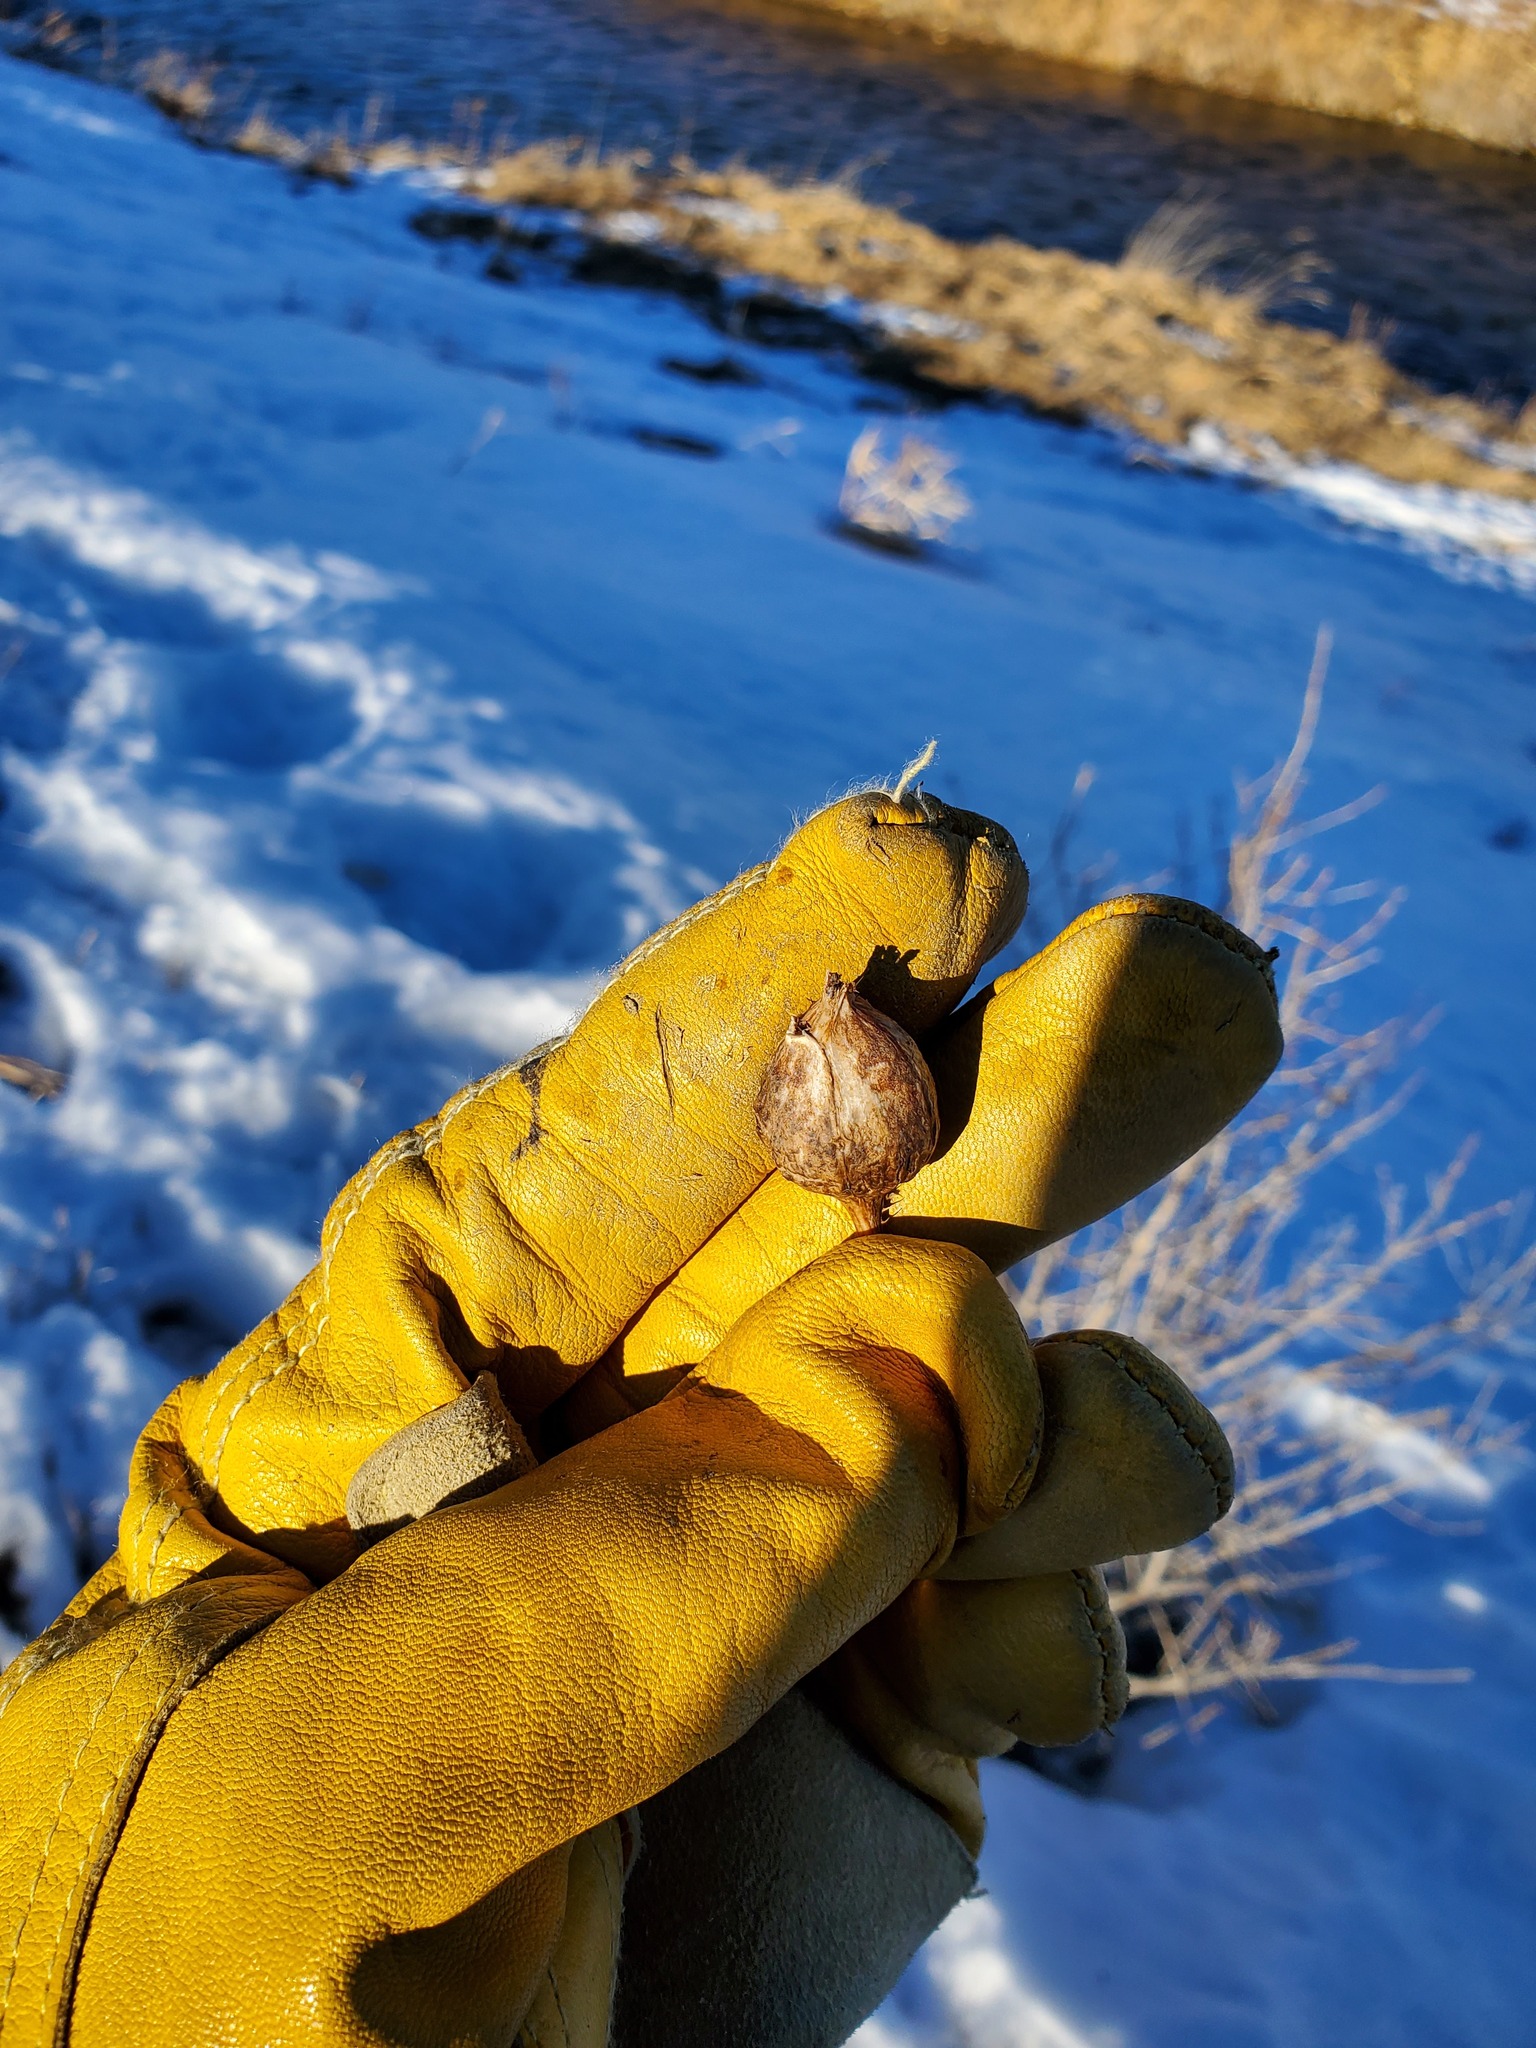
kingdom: Animalia
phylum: Arthropoda
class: Insecta
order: Diptera
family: Tephritidae
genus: Urophora
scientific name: Urophora cardui
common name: Fruit fly
